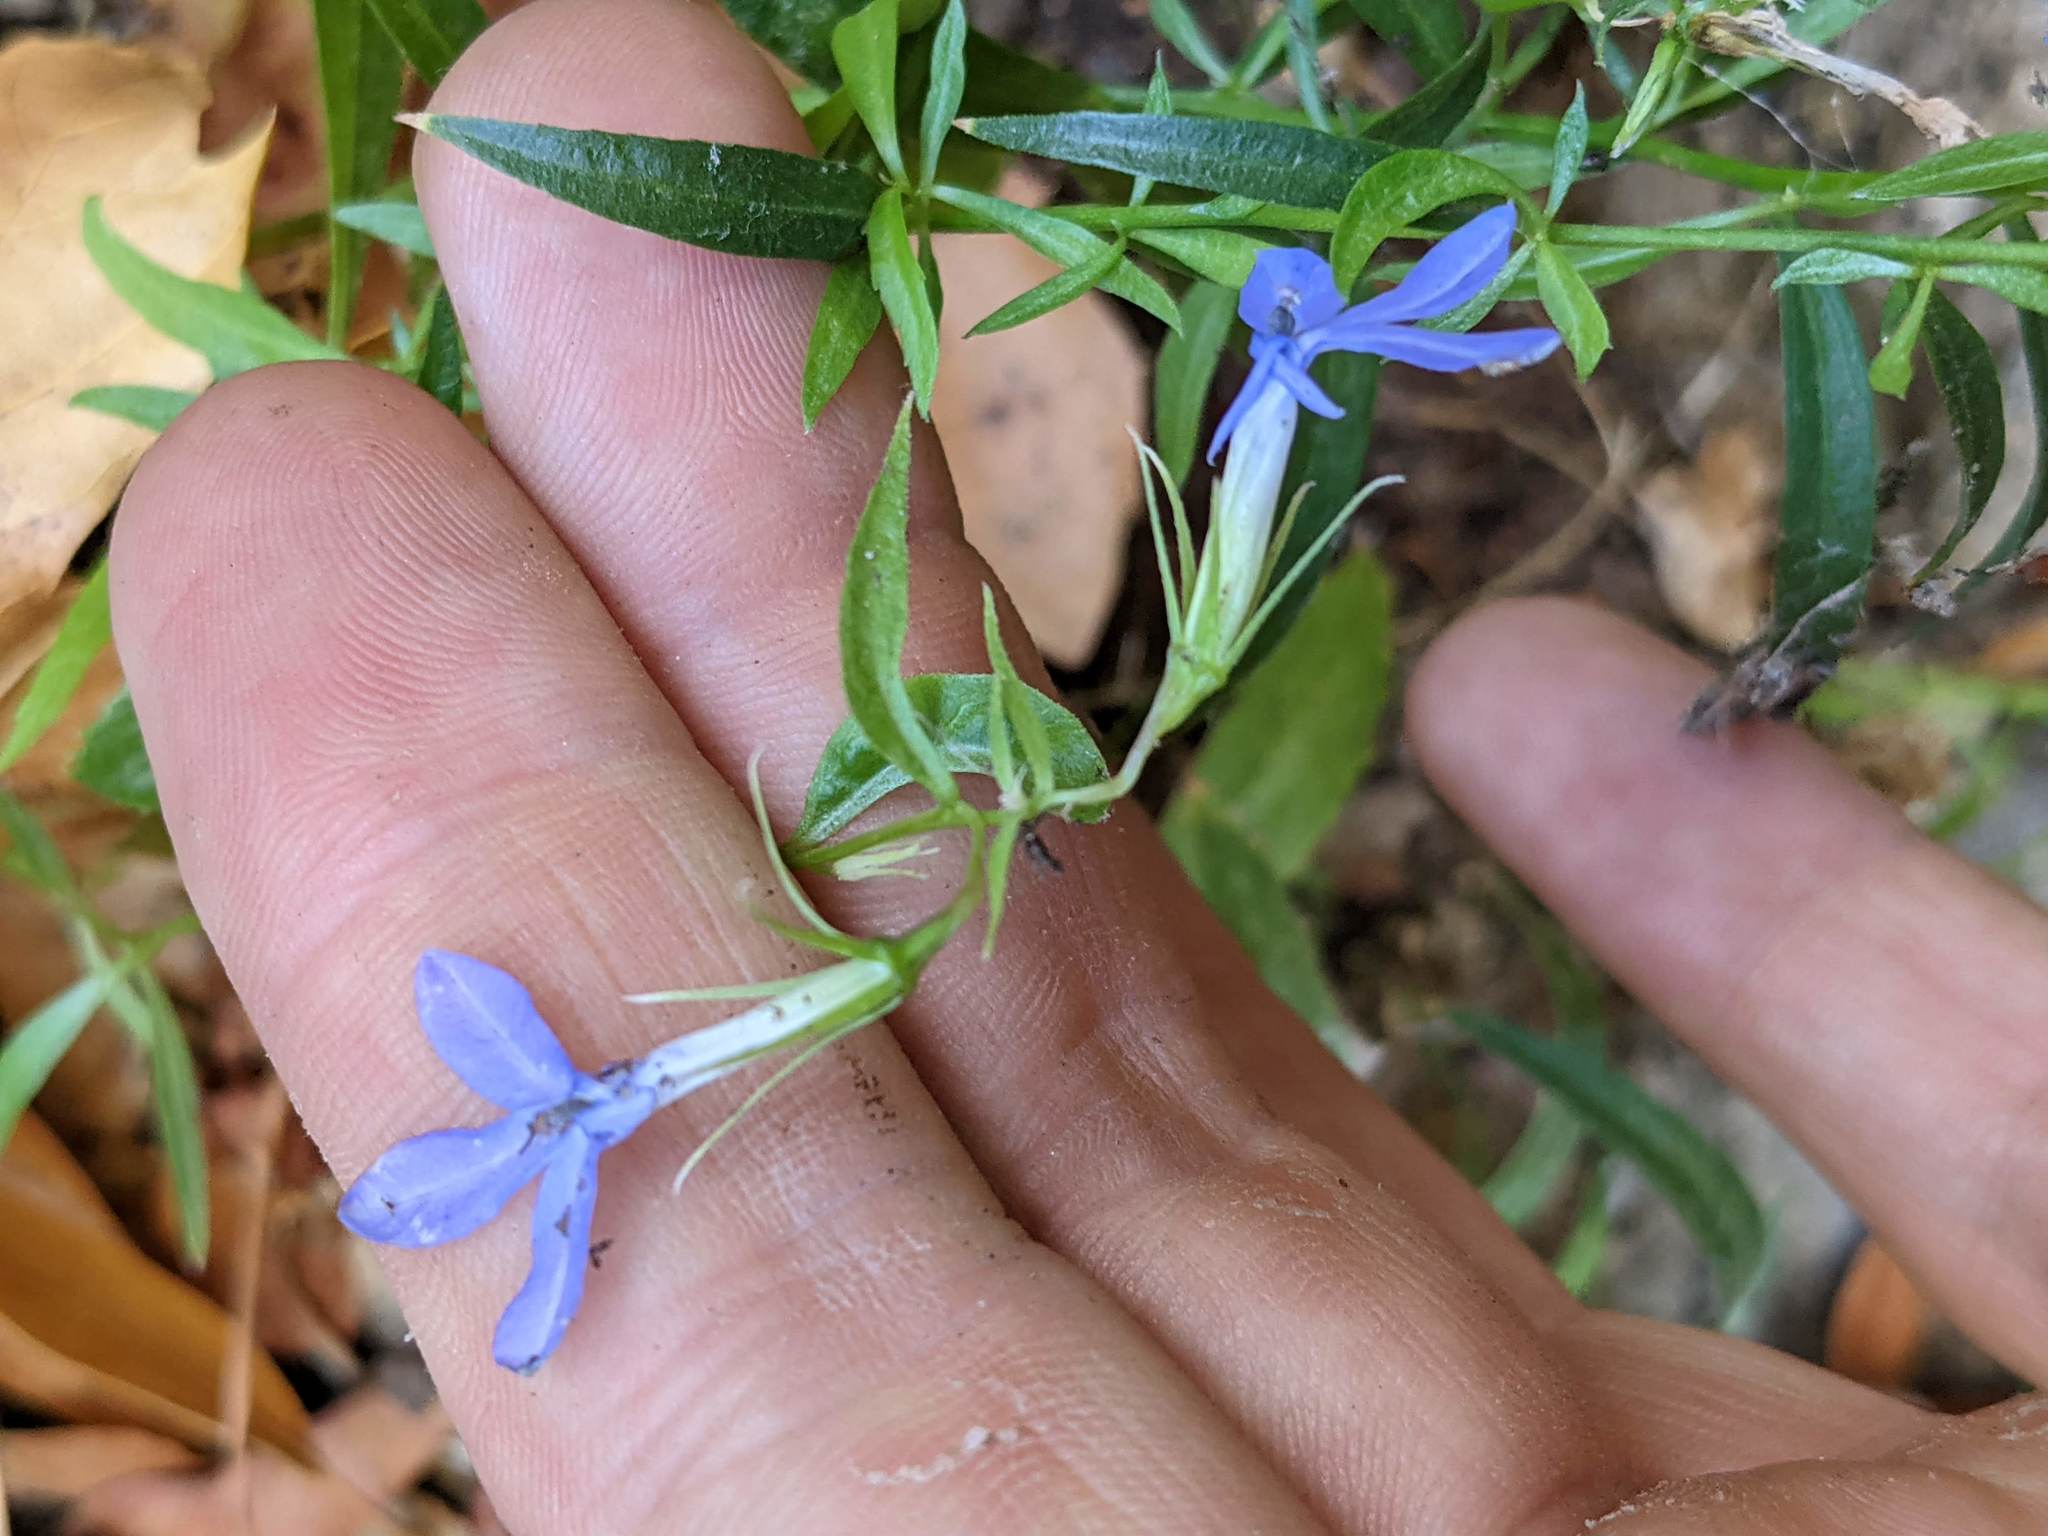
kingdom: Plantae
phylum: Tracheophyta
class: Magnoliopsida
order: Asterales
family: Campanulaceae
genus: Palmerella
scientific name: Palmerella debilis
